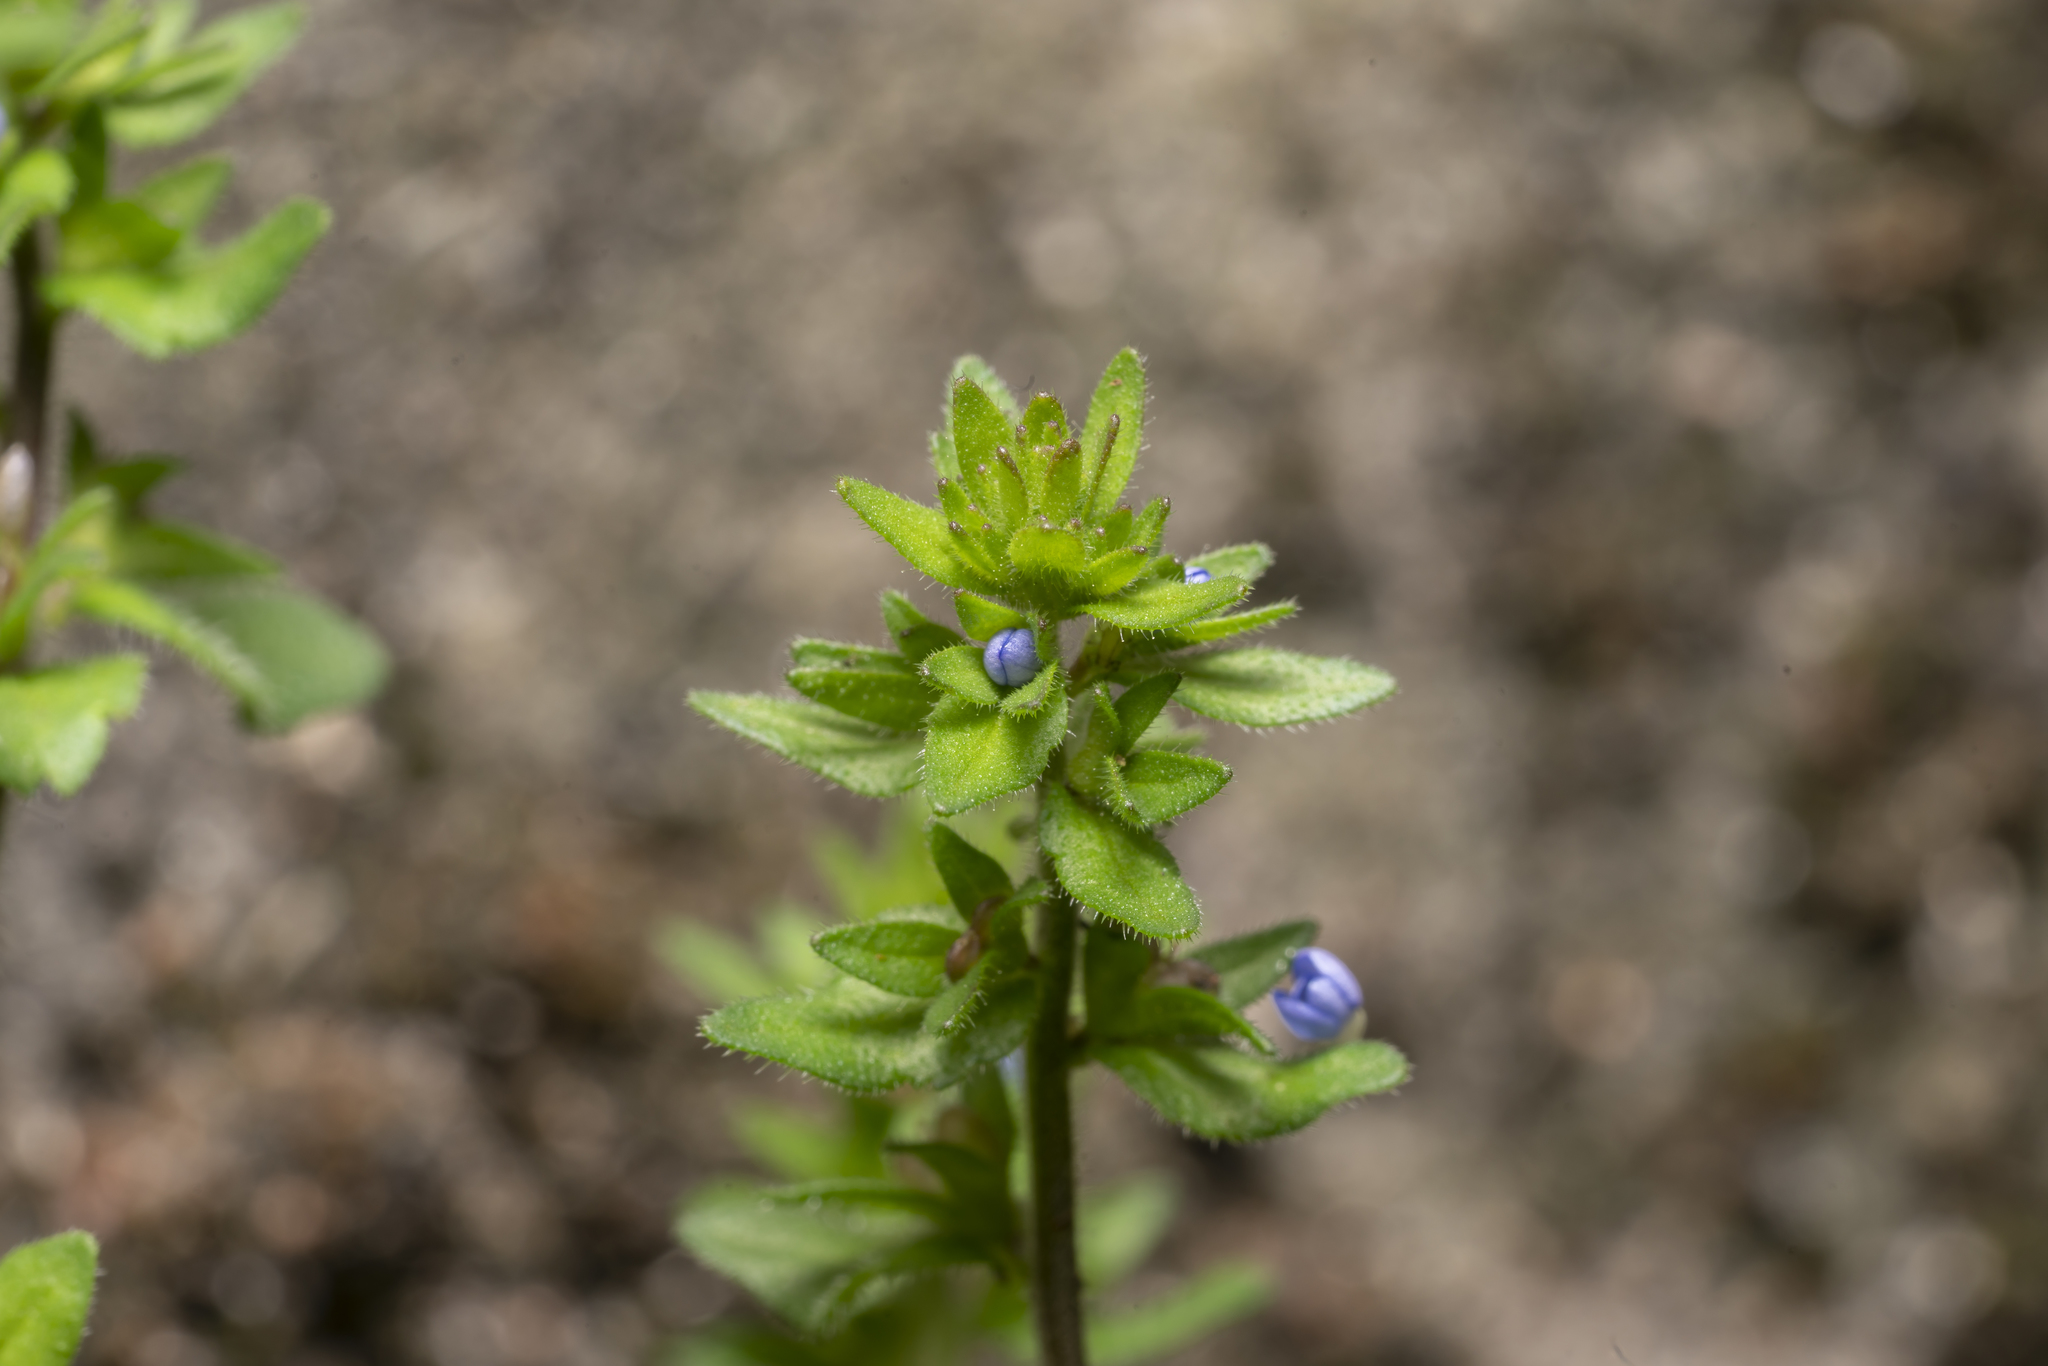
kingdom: Plantae
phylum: Tracheophyta
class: Magnoliopsida
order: Lamiales
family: Plantaginaceae
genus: Veronica
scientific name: Veronica arvensis
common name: Corn speedwell
